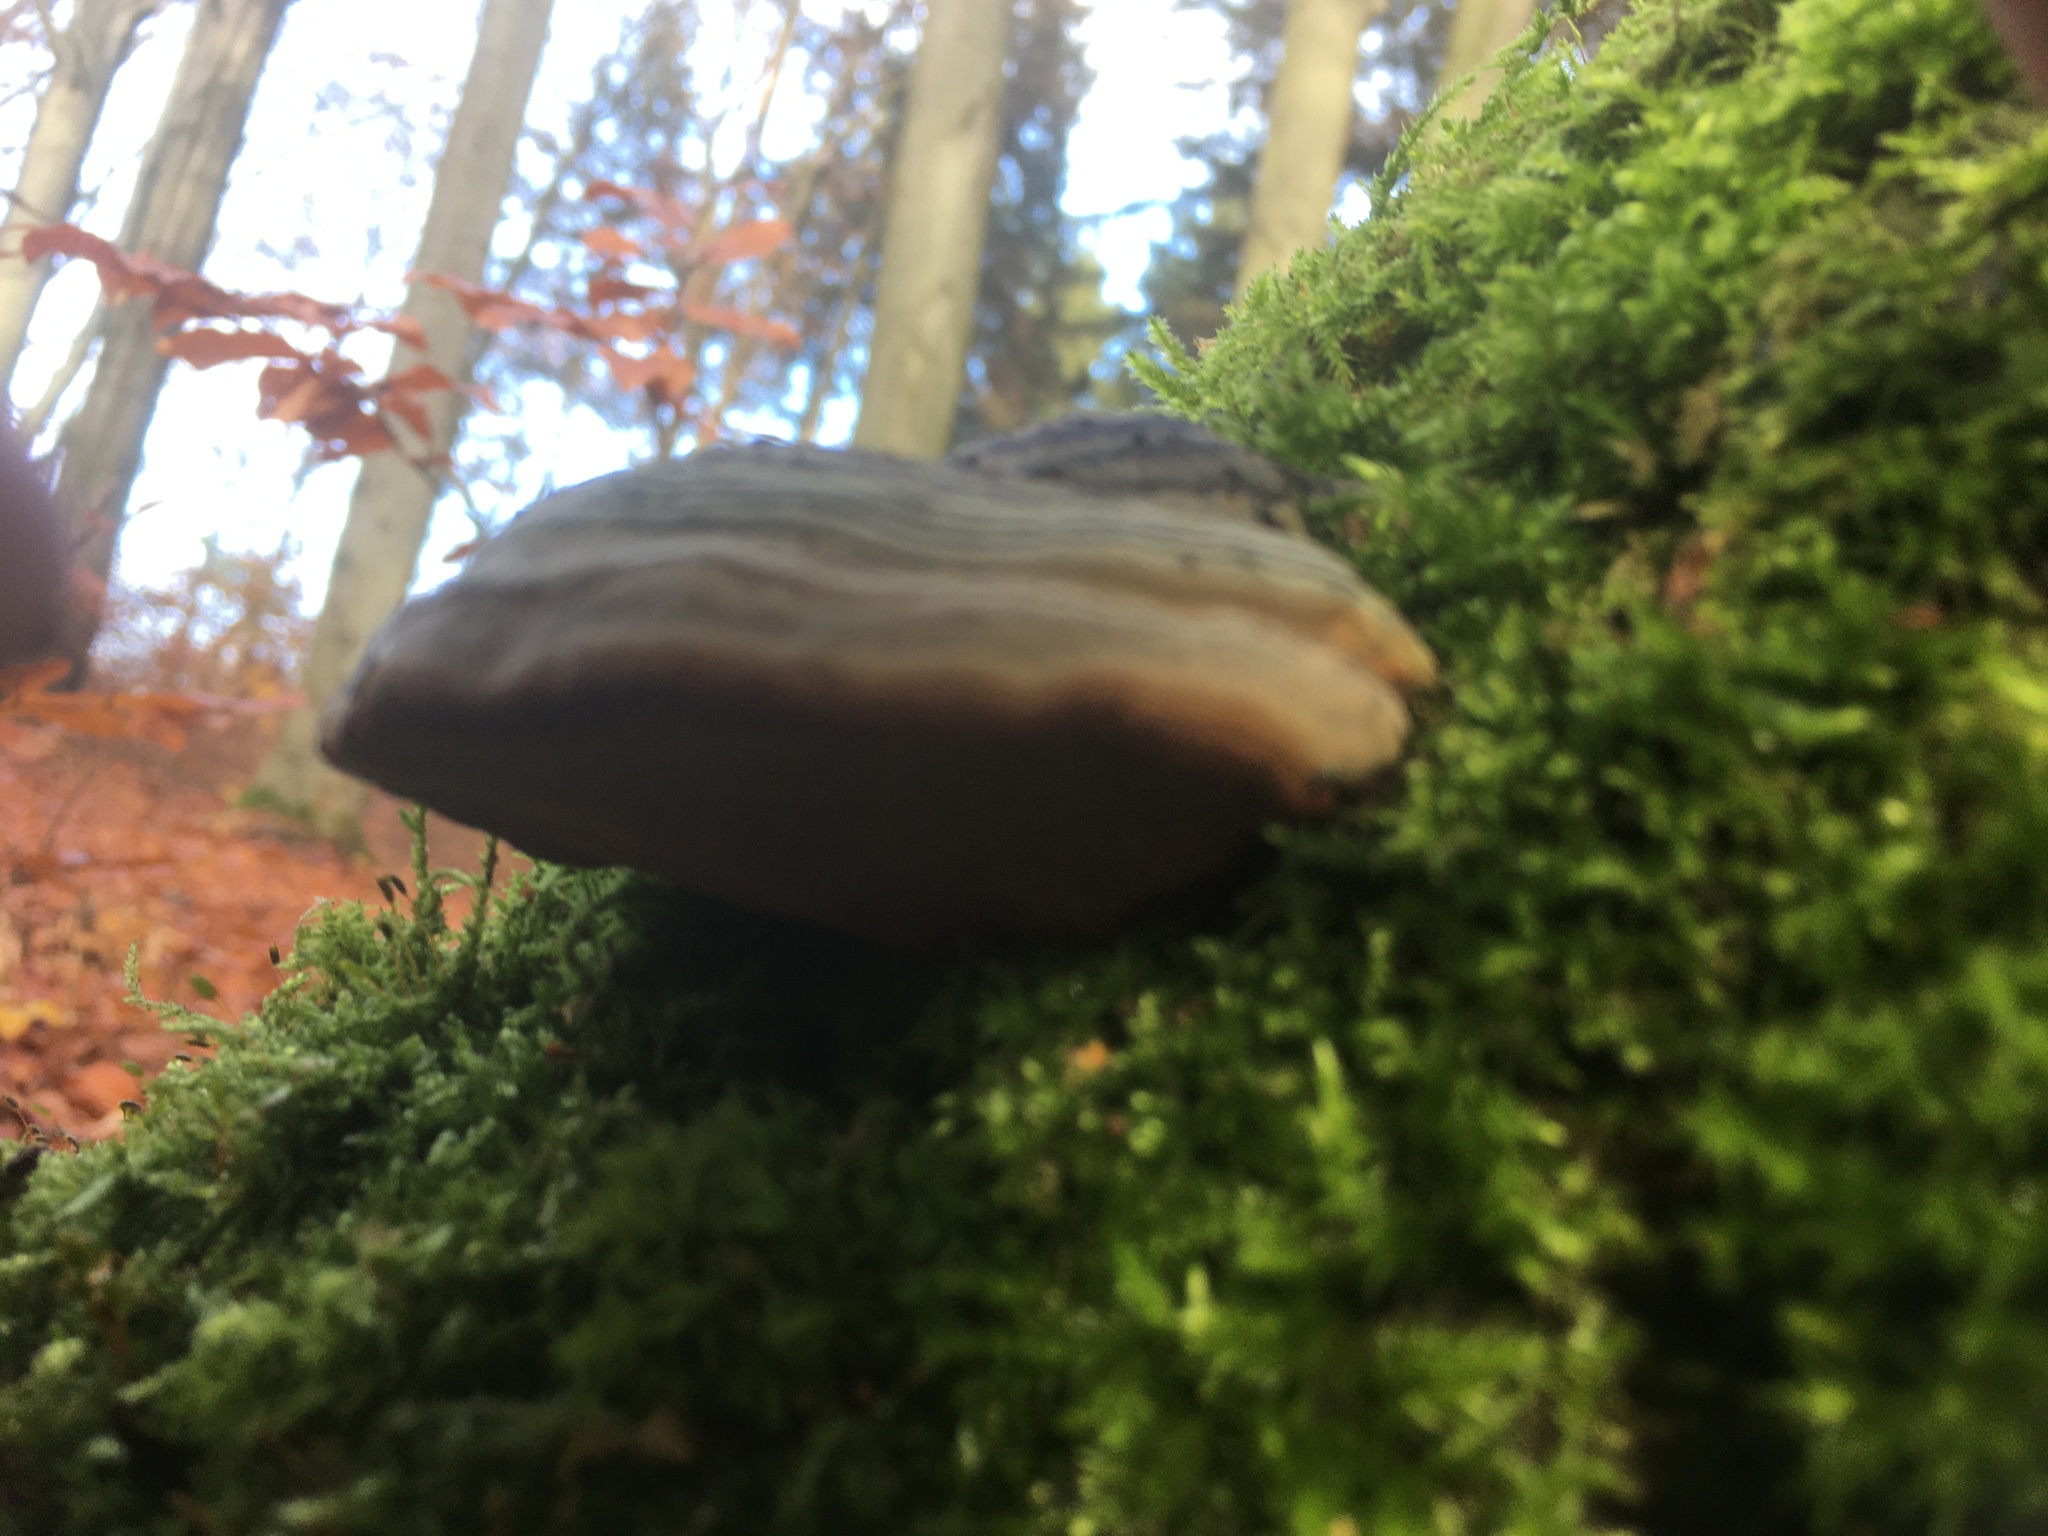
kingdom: Fungi
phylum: Basidiomycota
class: Agaricomycetes
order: Polyporales
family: Polyporaceae
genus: Fomes
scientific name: Fomes fomentarius
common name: Hoof fungus
